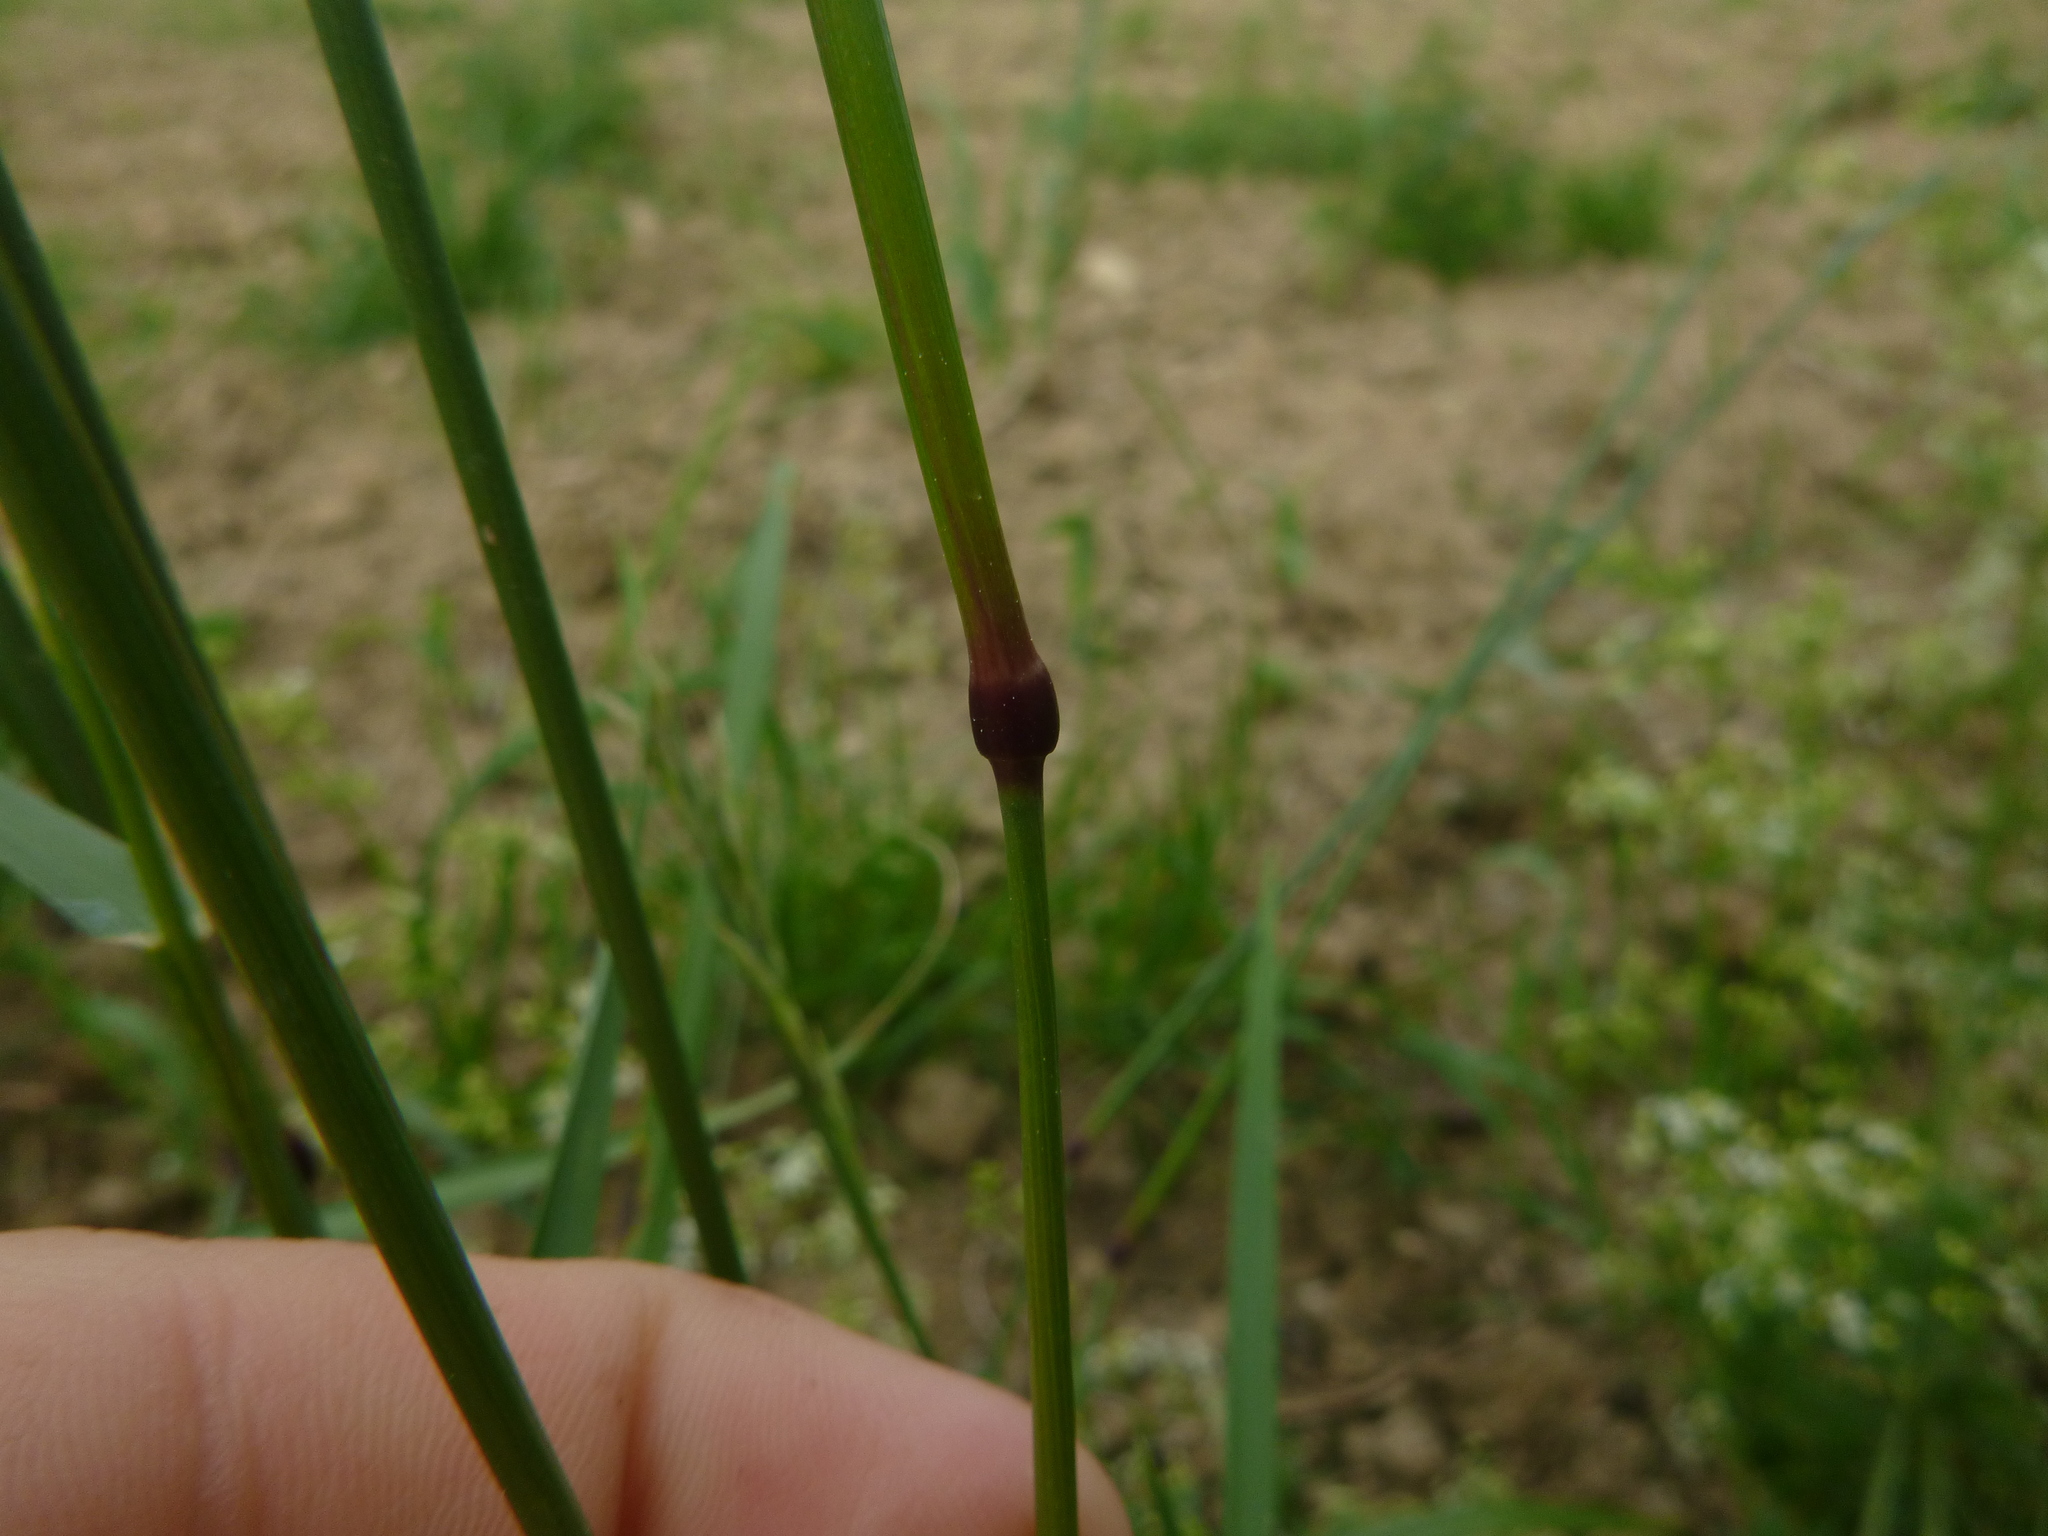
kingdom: Plantae
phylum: Tracheophyta
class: Liliopsida
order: Poales
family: Poaceae
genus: Lolium
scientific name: Lolium pratense
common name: Dover grass
